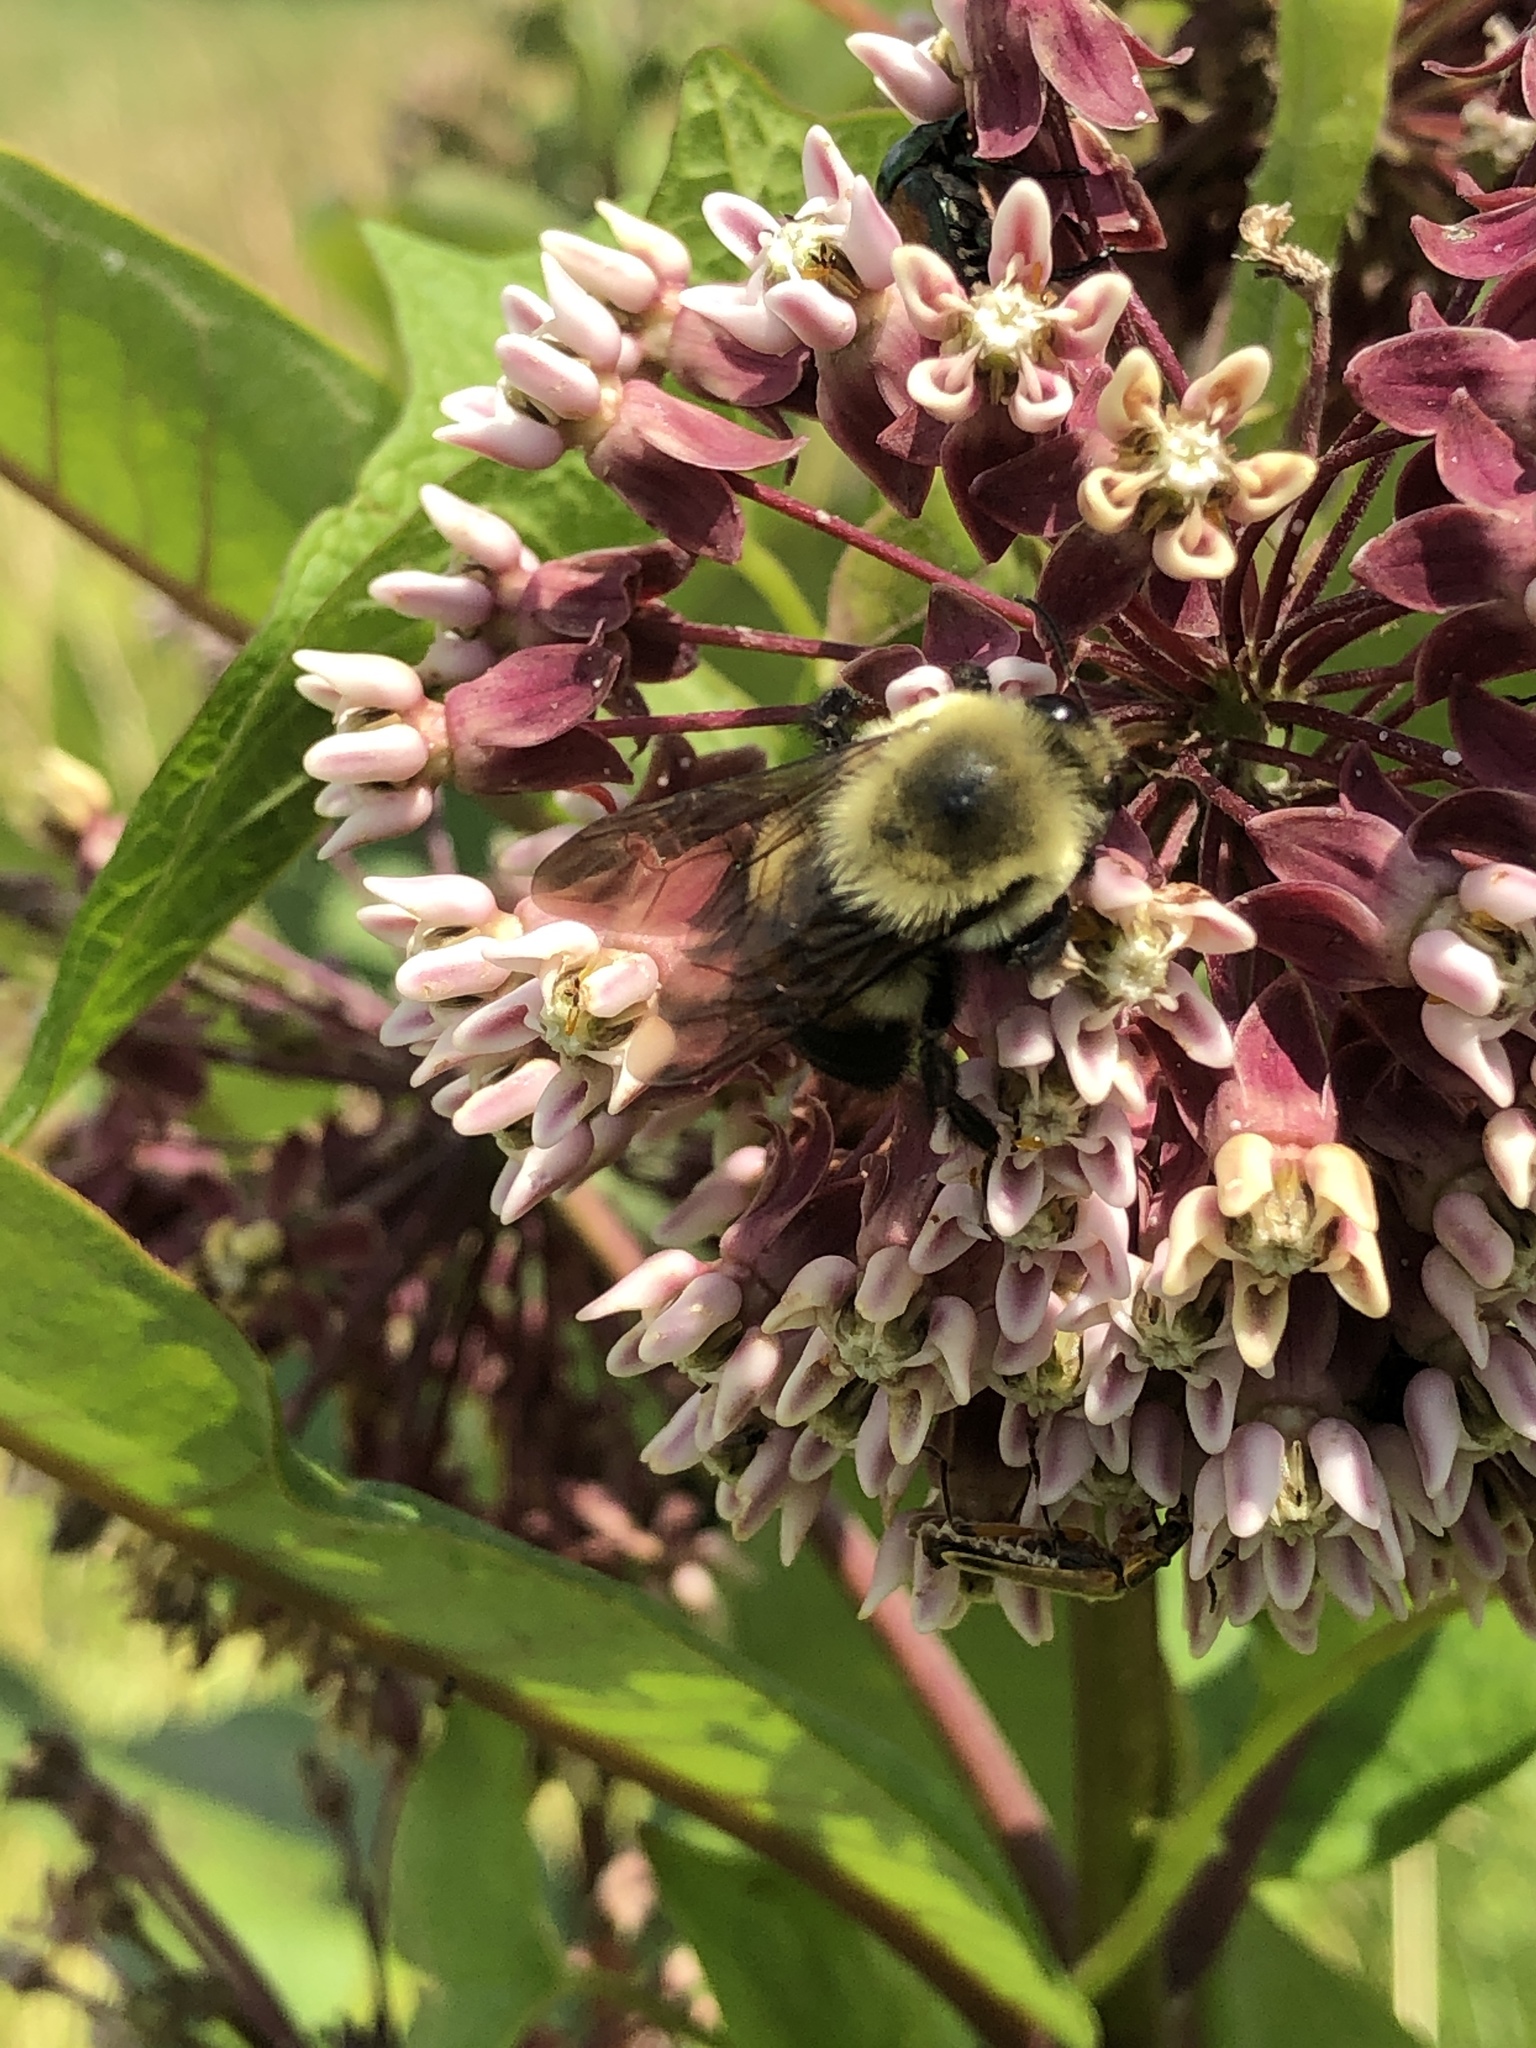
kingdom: Animalia
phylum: Arthropoda
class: Insecta
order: Hymenoptera
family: Apidae
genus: Bombus
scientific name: Bombus griseocollis
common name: Brown-belted bumble bee
